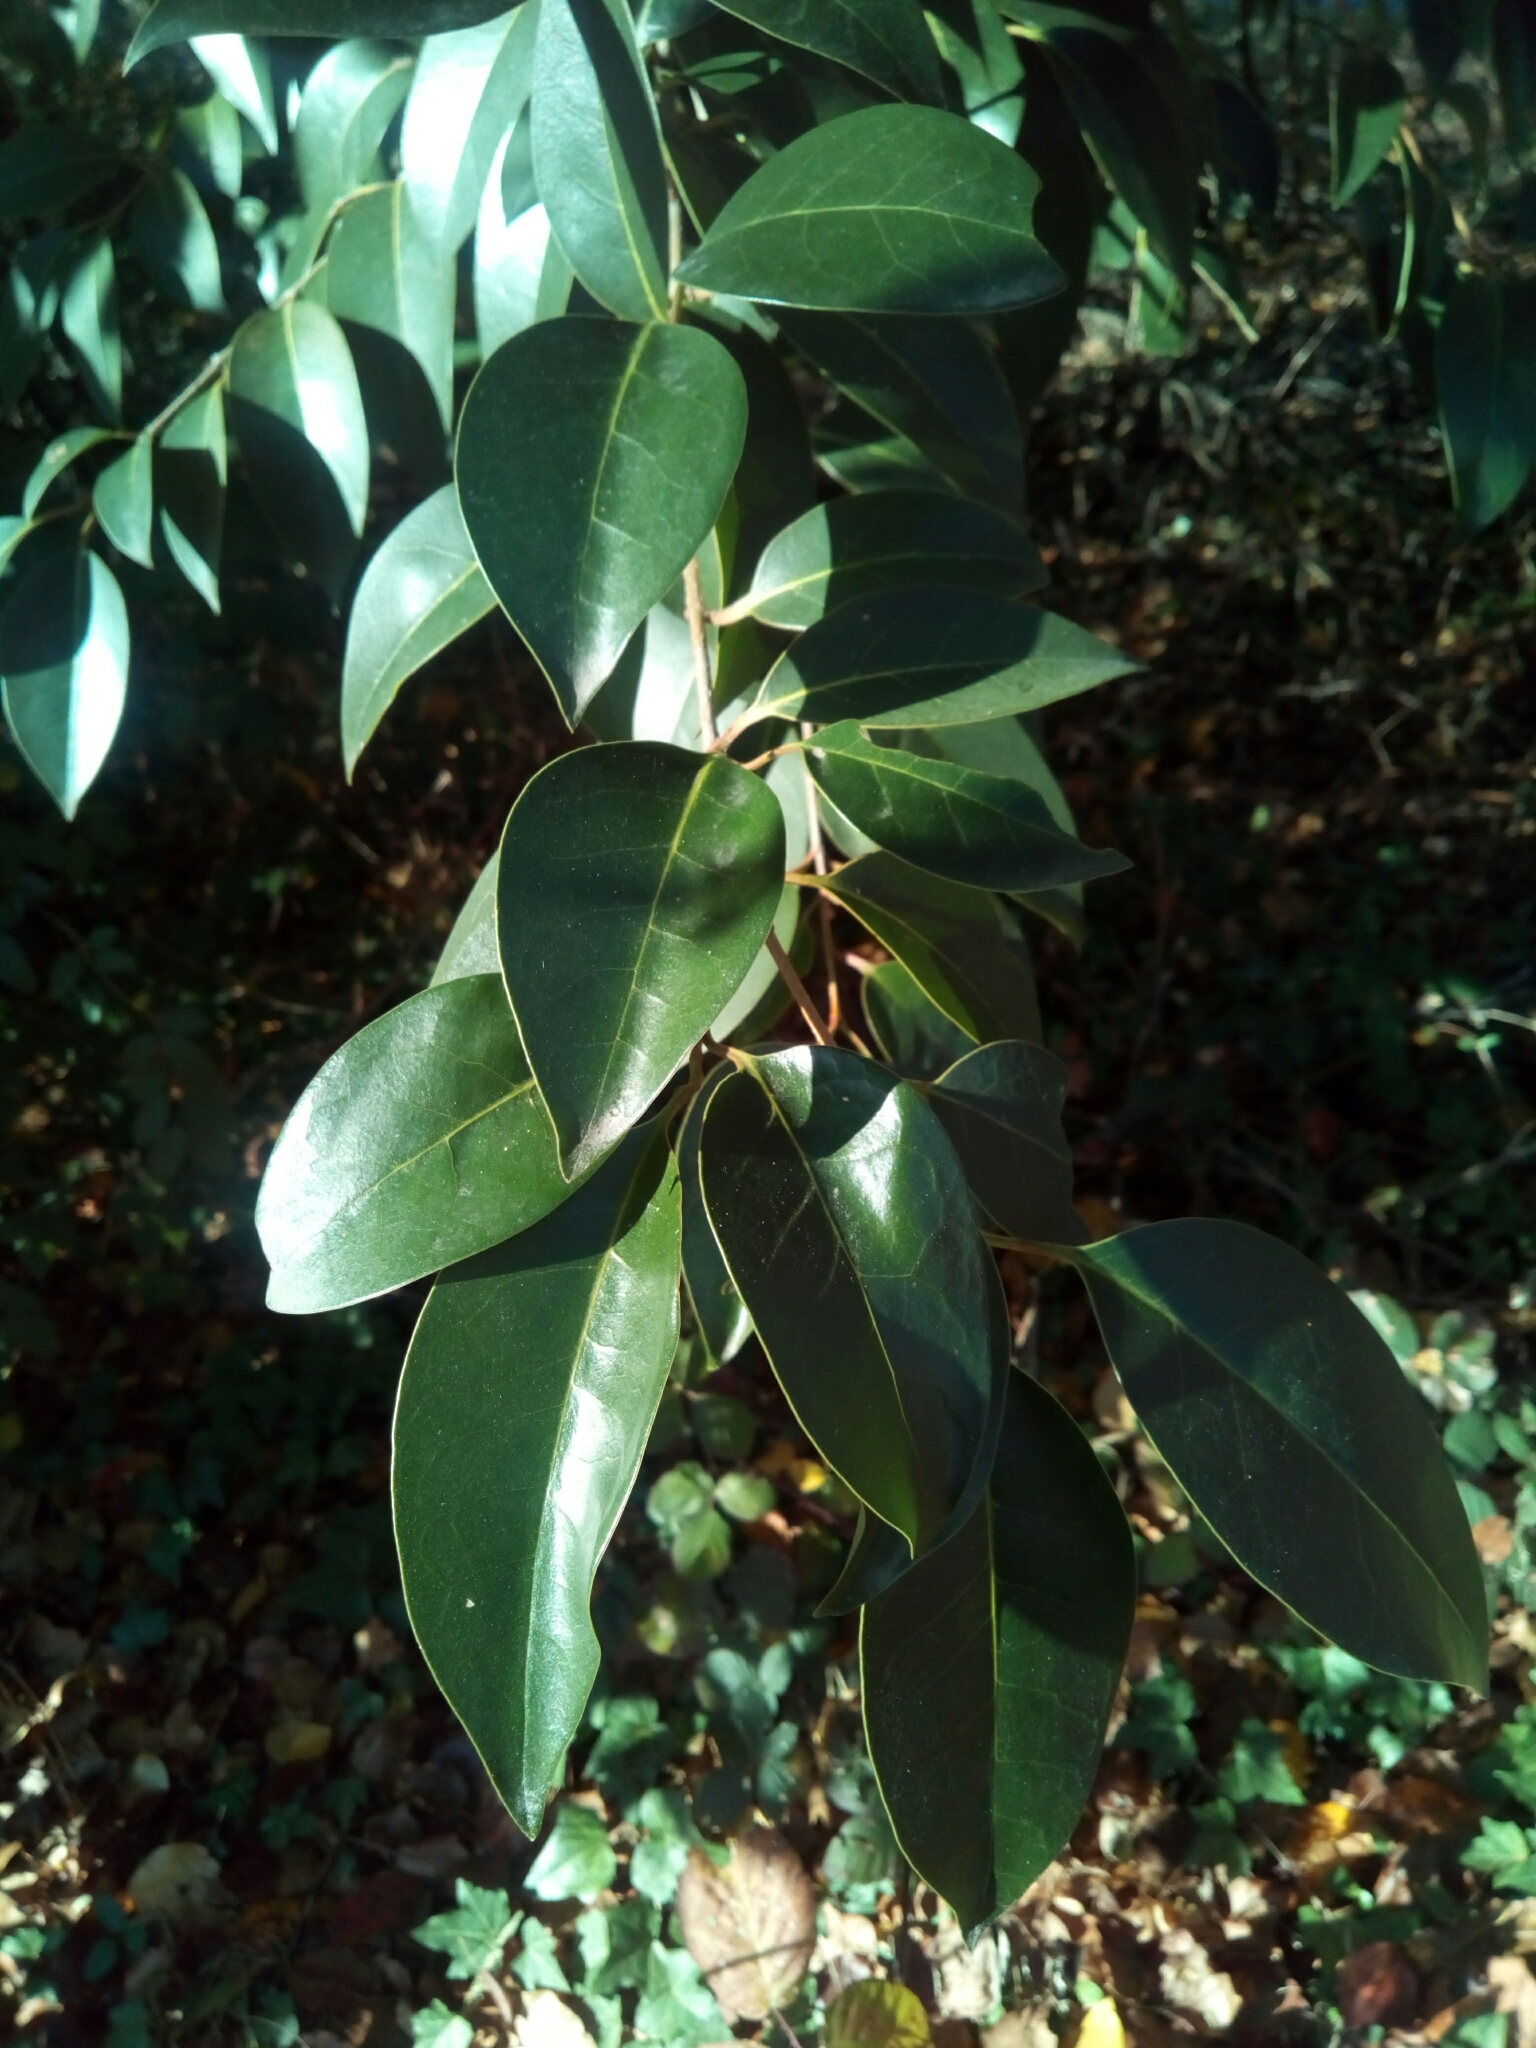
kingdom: Plantae
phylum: Tracheophyta
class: Magnoliopsida
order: Lamiales
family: Oleaceae
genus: Ligustrum
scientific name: Ligustrum lucidum
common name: Glossy privet
